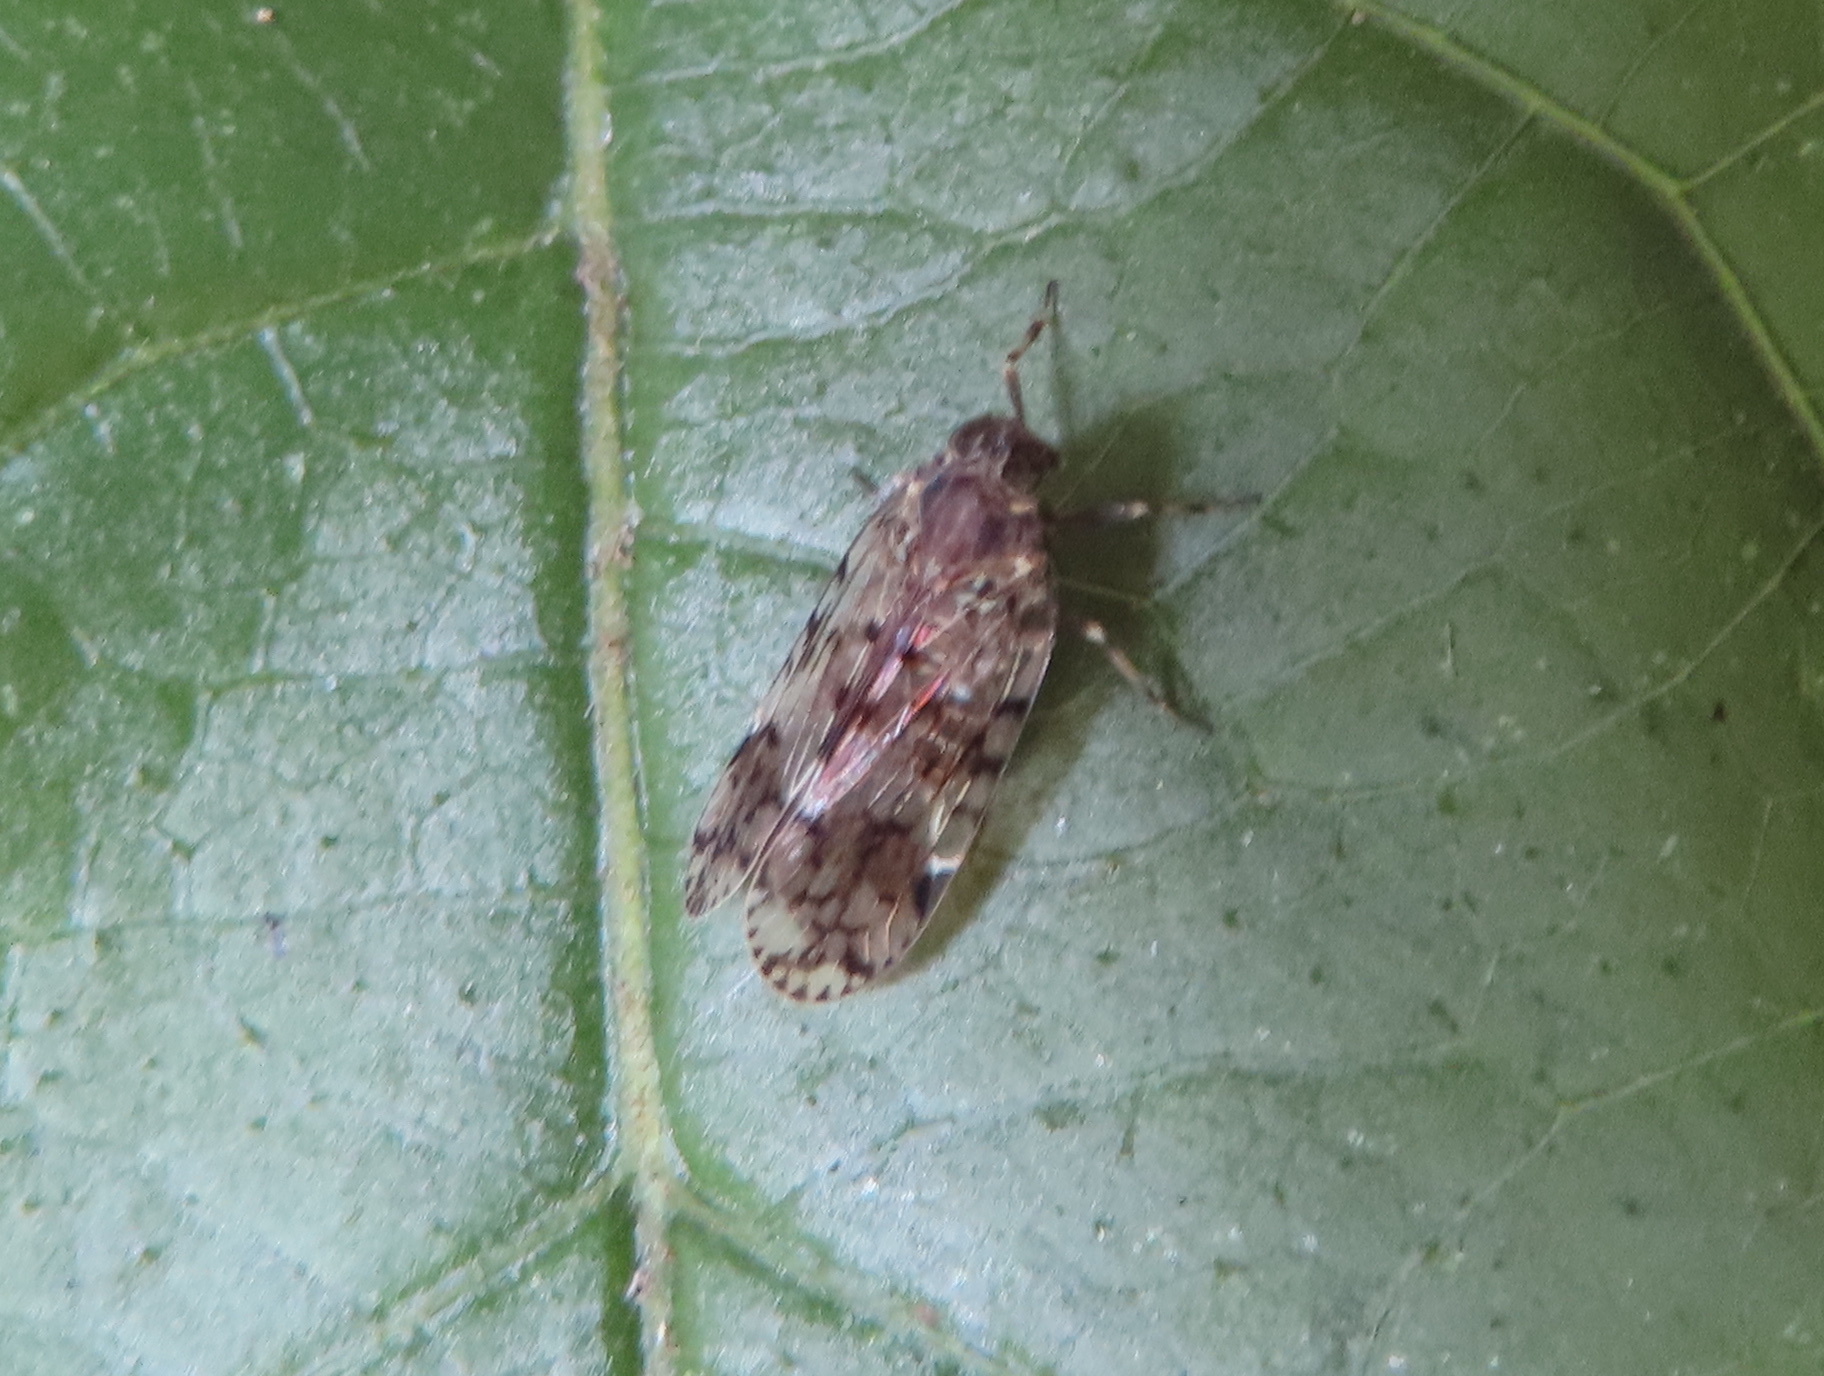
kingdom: Animalia
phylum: Arthropoda
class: Insecta
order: Hemiptera
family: Cixiidae
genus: Melanoliarus
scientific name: Melanoliarus placitus
